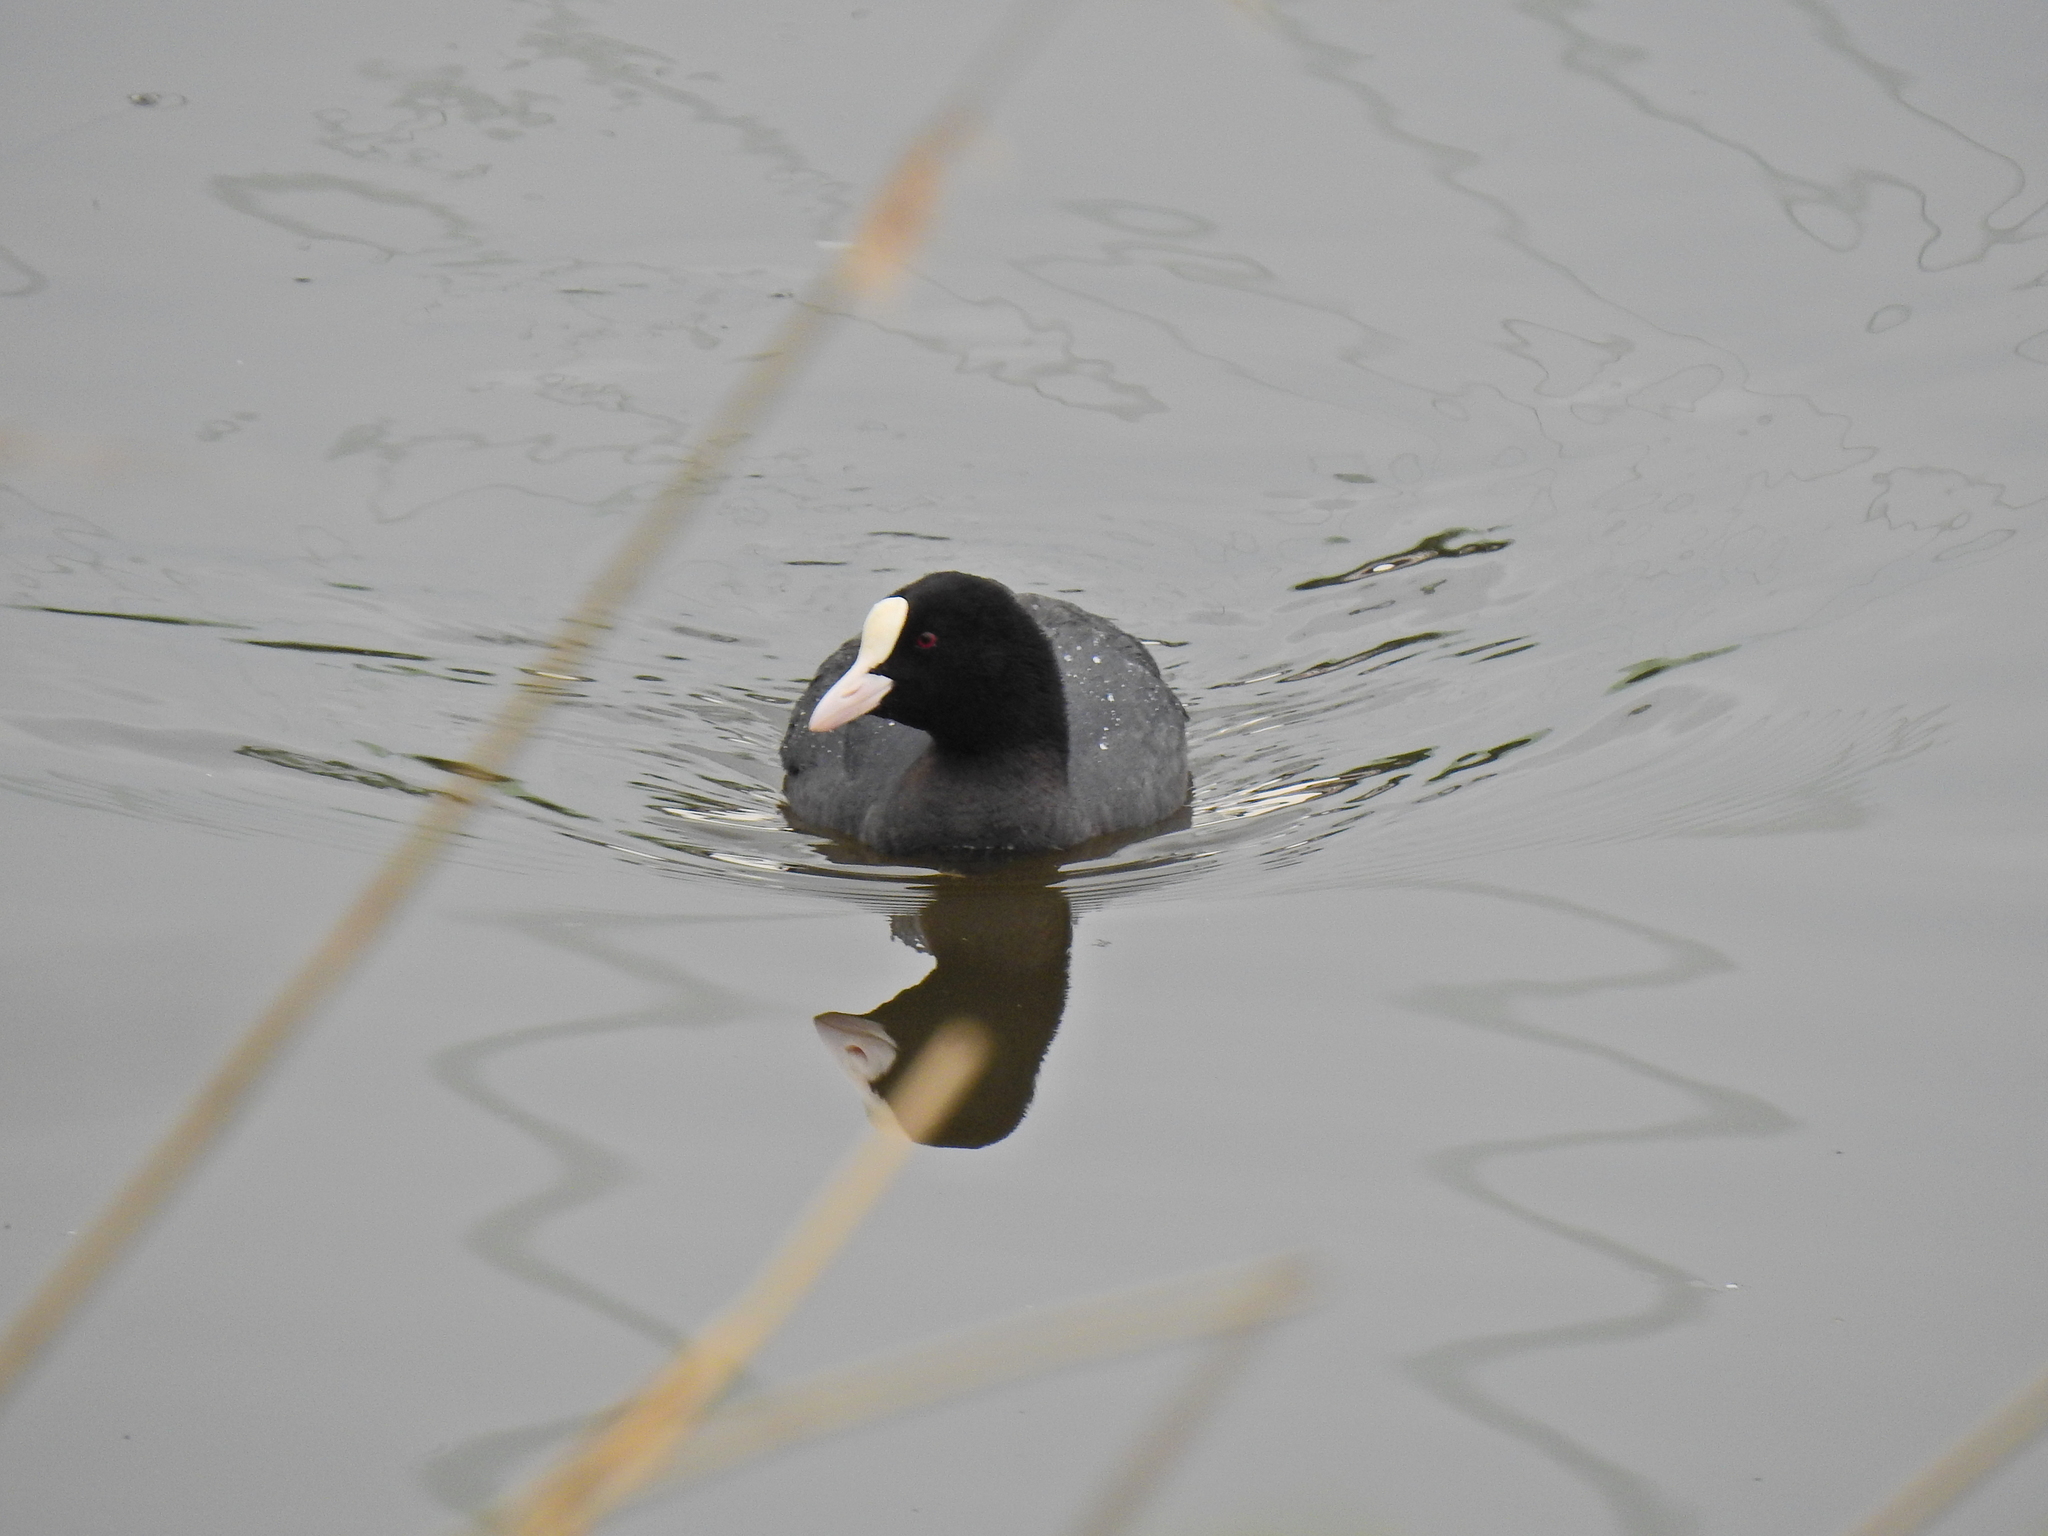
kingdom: Animalia
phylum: Chordata
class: Aves
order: Gruiformes
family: Rallidae
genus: Fulica
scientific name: Fulica atra
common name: Eurasian coot
